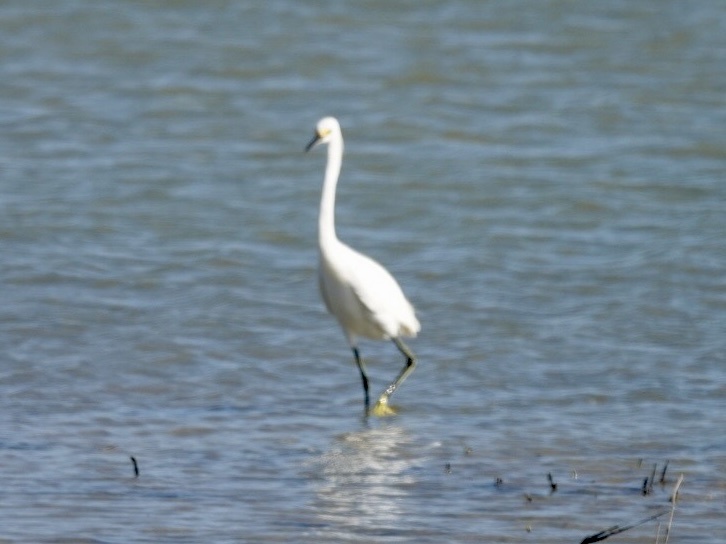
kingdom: Animalia
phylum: Chordata
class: Aves
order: Pelecaniformes
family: Ardeidae
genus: Egretta
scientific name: Egretta thula
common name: Snowy egret
